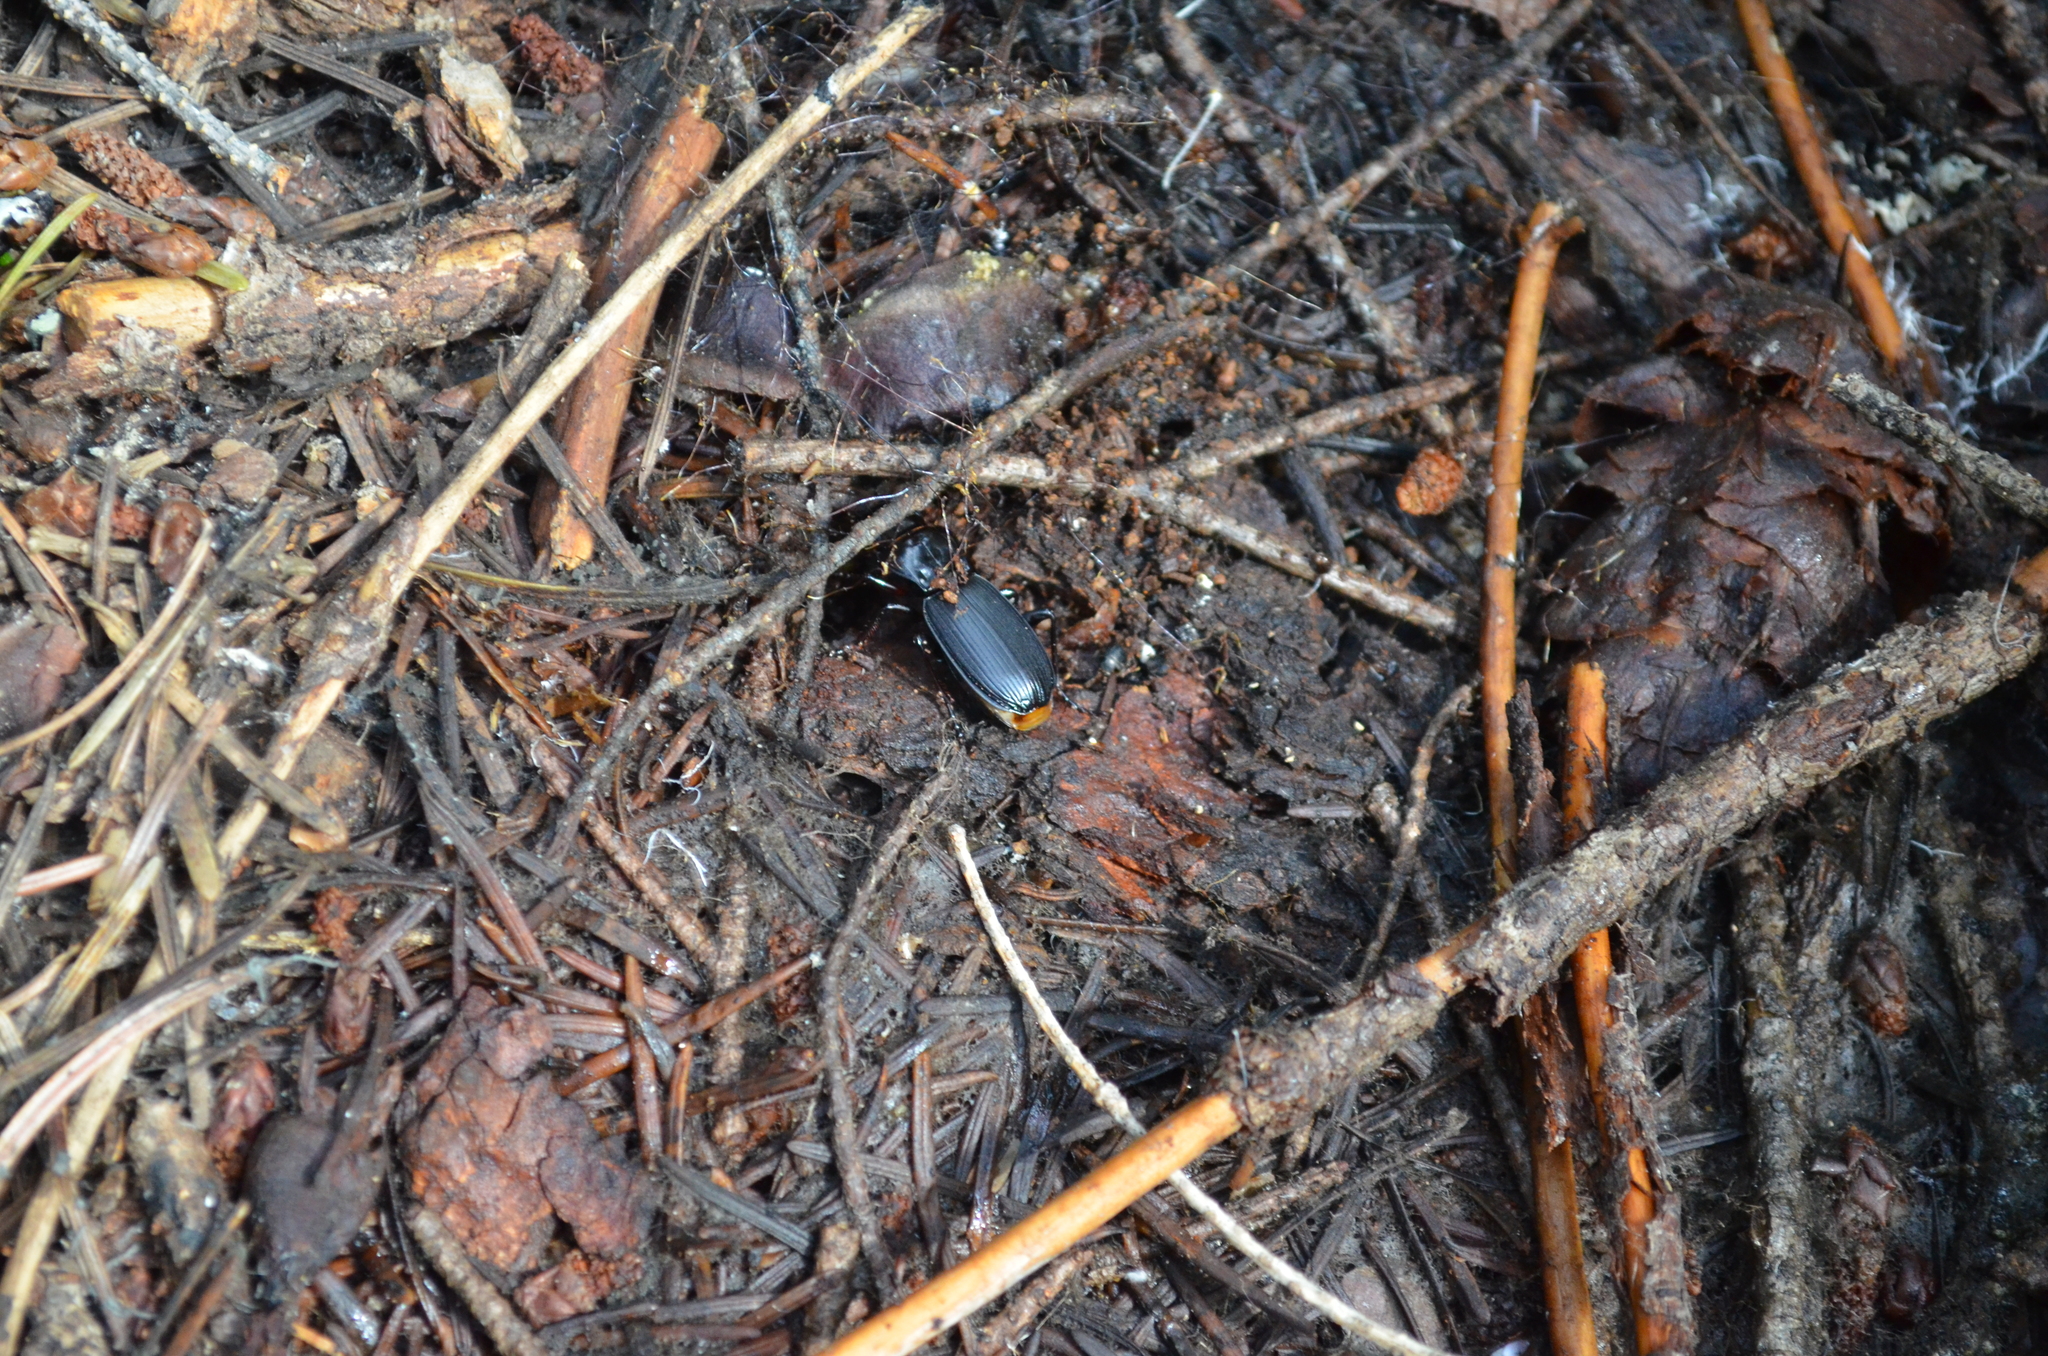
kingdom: Animalia
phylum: Arthropoda
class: Insecta
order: Coleoptera
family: Carabidae
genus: Pterostichus
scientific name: Pterostichus lama
